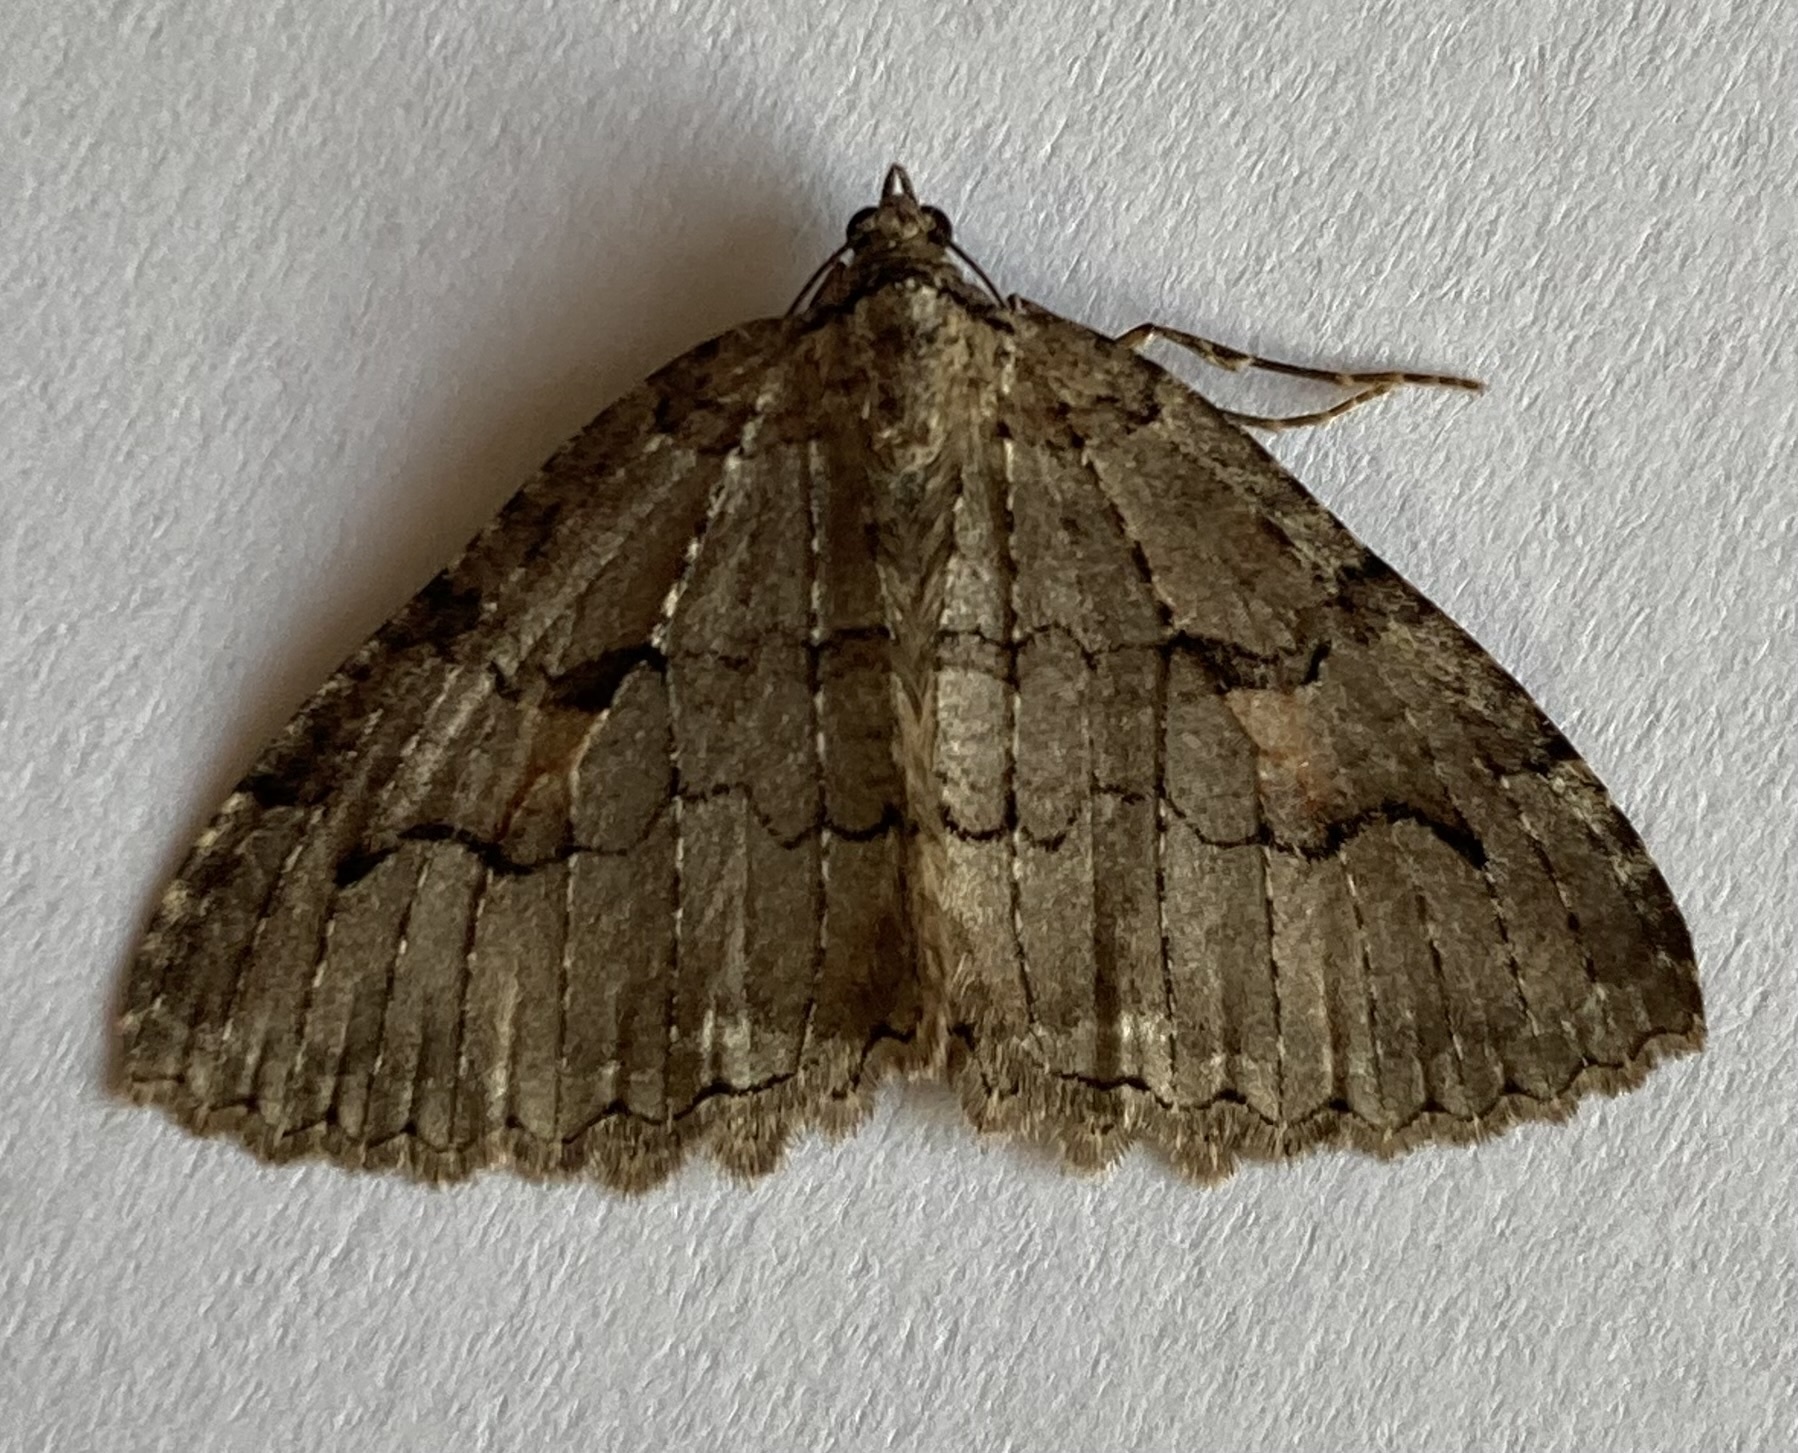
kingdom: Animalia
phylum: Arthropoda
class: Insecta
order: Lepidoptera
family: Geometridae
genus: Triphosa
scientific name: Triphosa haesitata
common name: Tissue moth
